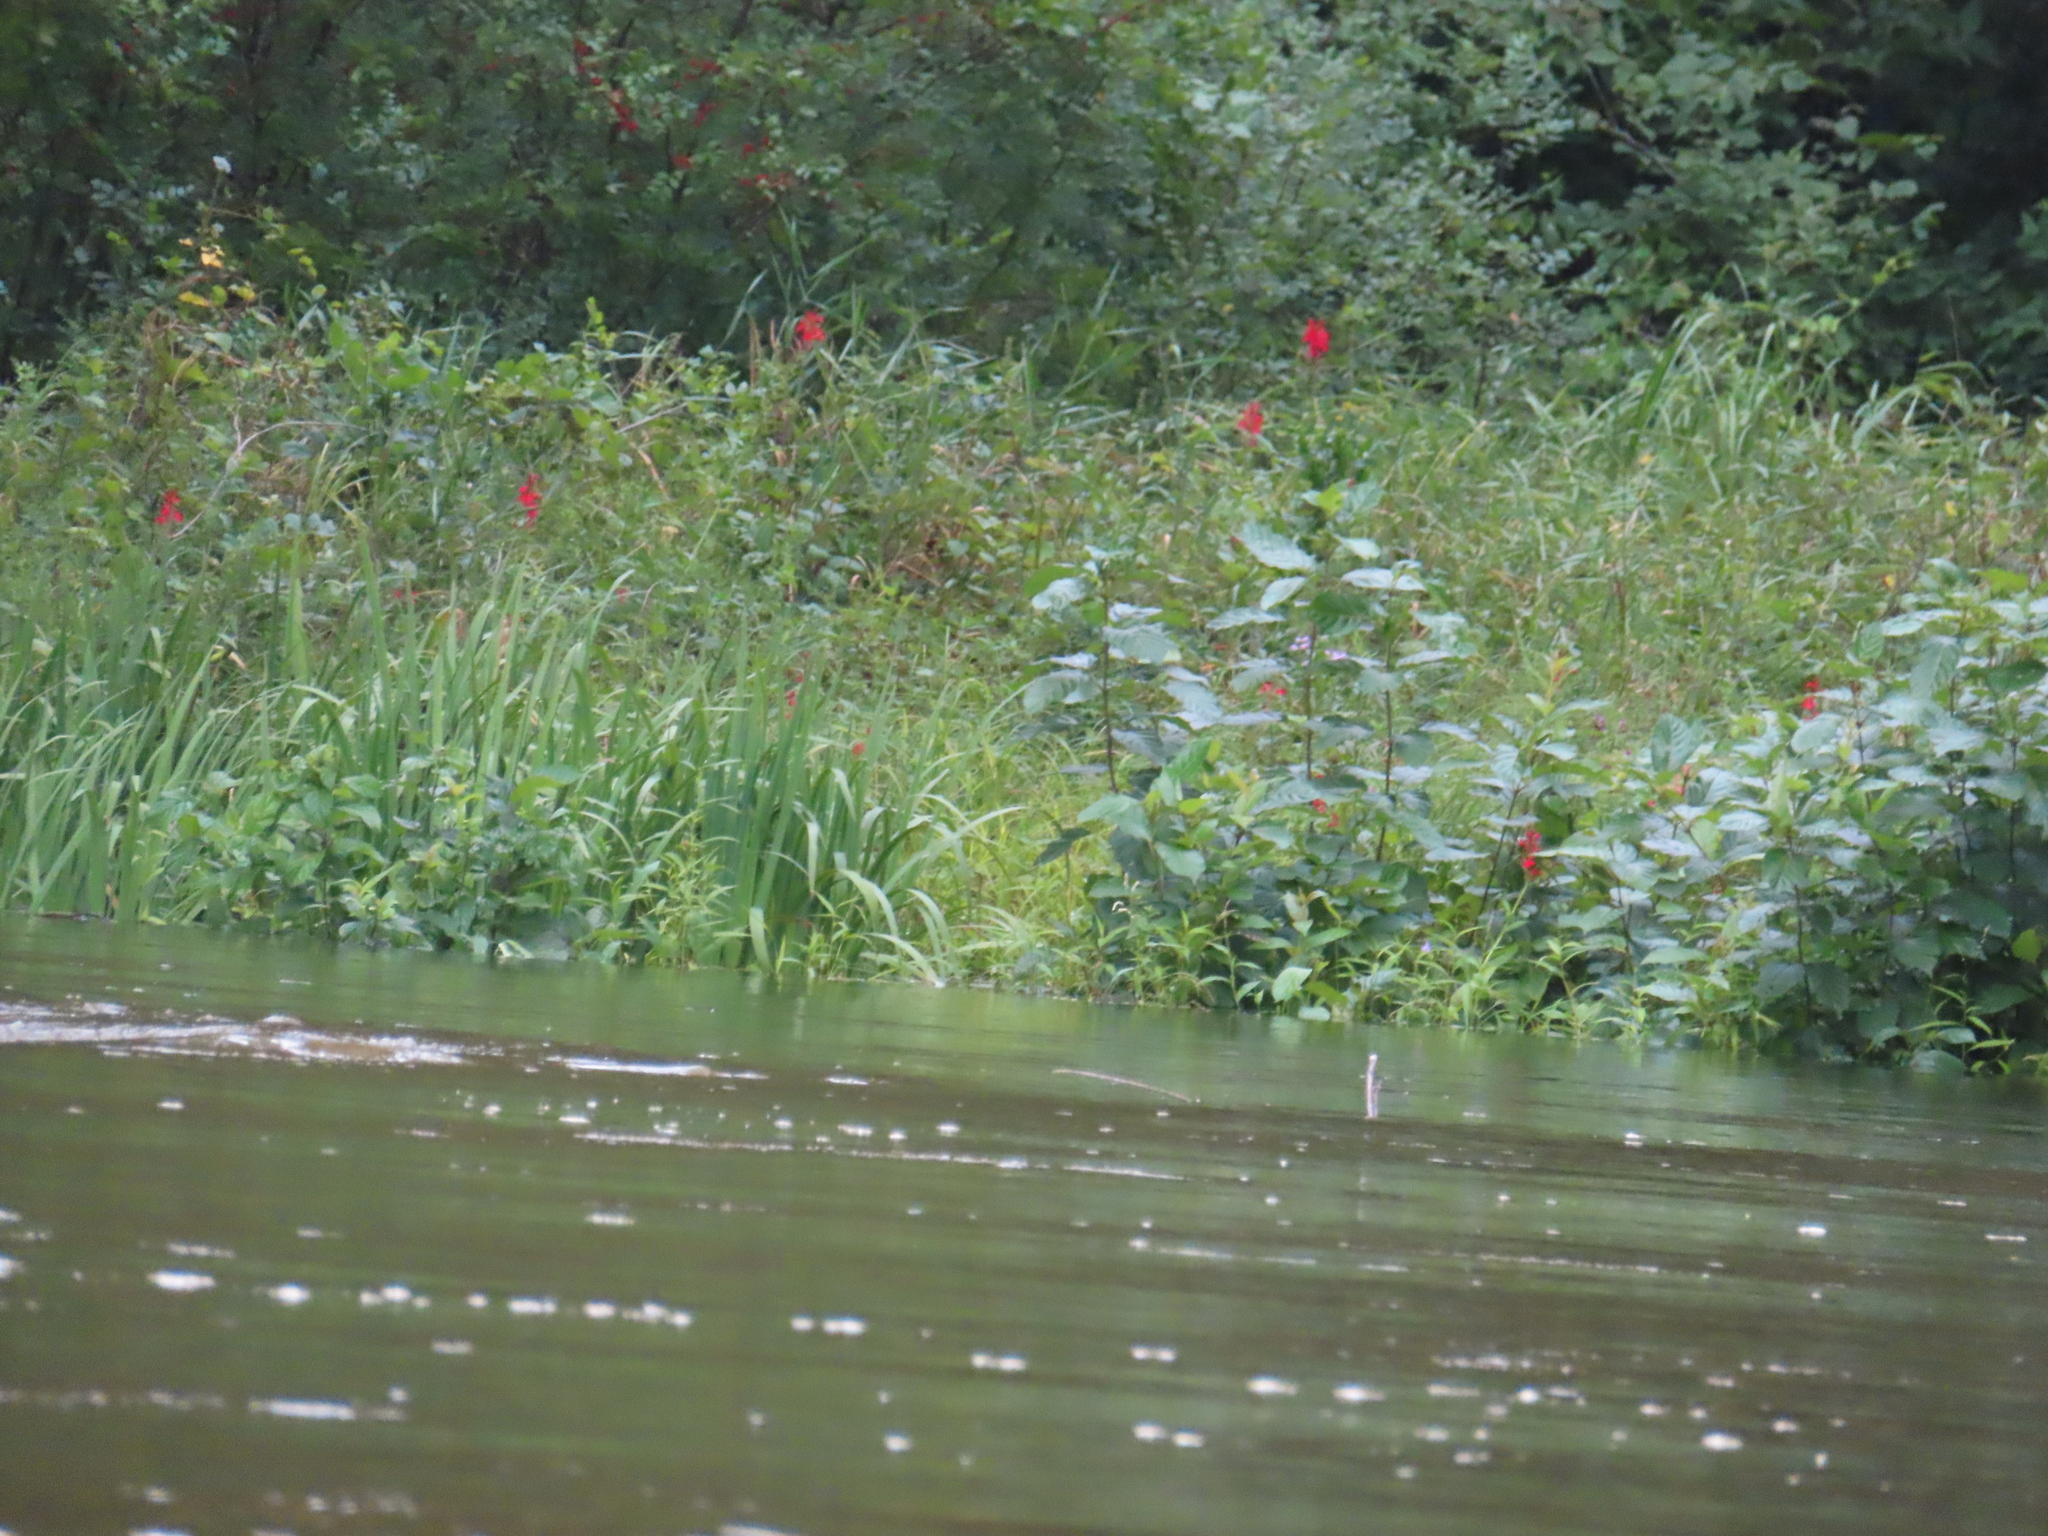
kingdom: Plantae
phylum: Tracheophyta
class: Magnoliopsida
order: Asterales
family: Campanulaceae
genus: Lobelia
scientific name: Lobelia cardinalis
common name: Cardinal flower
